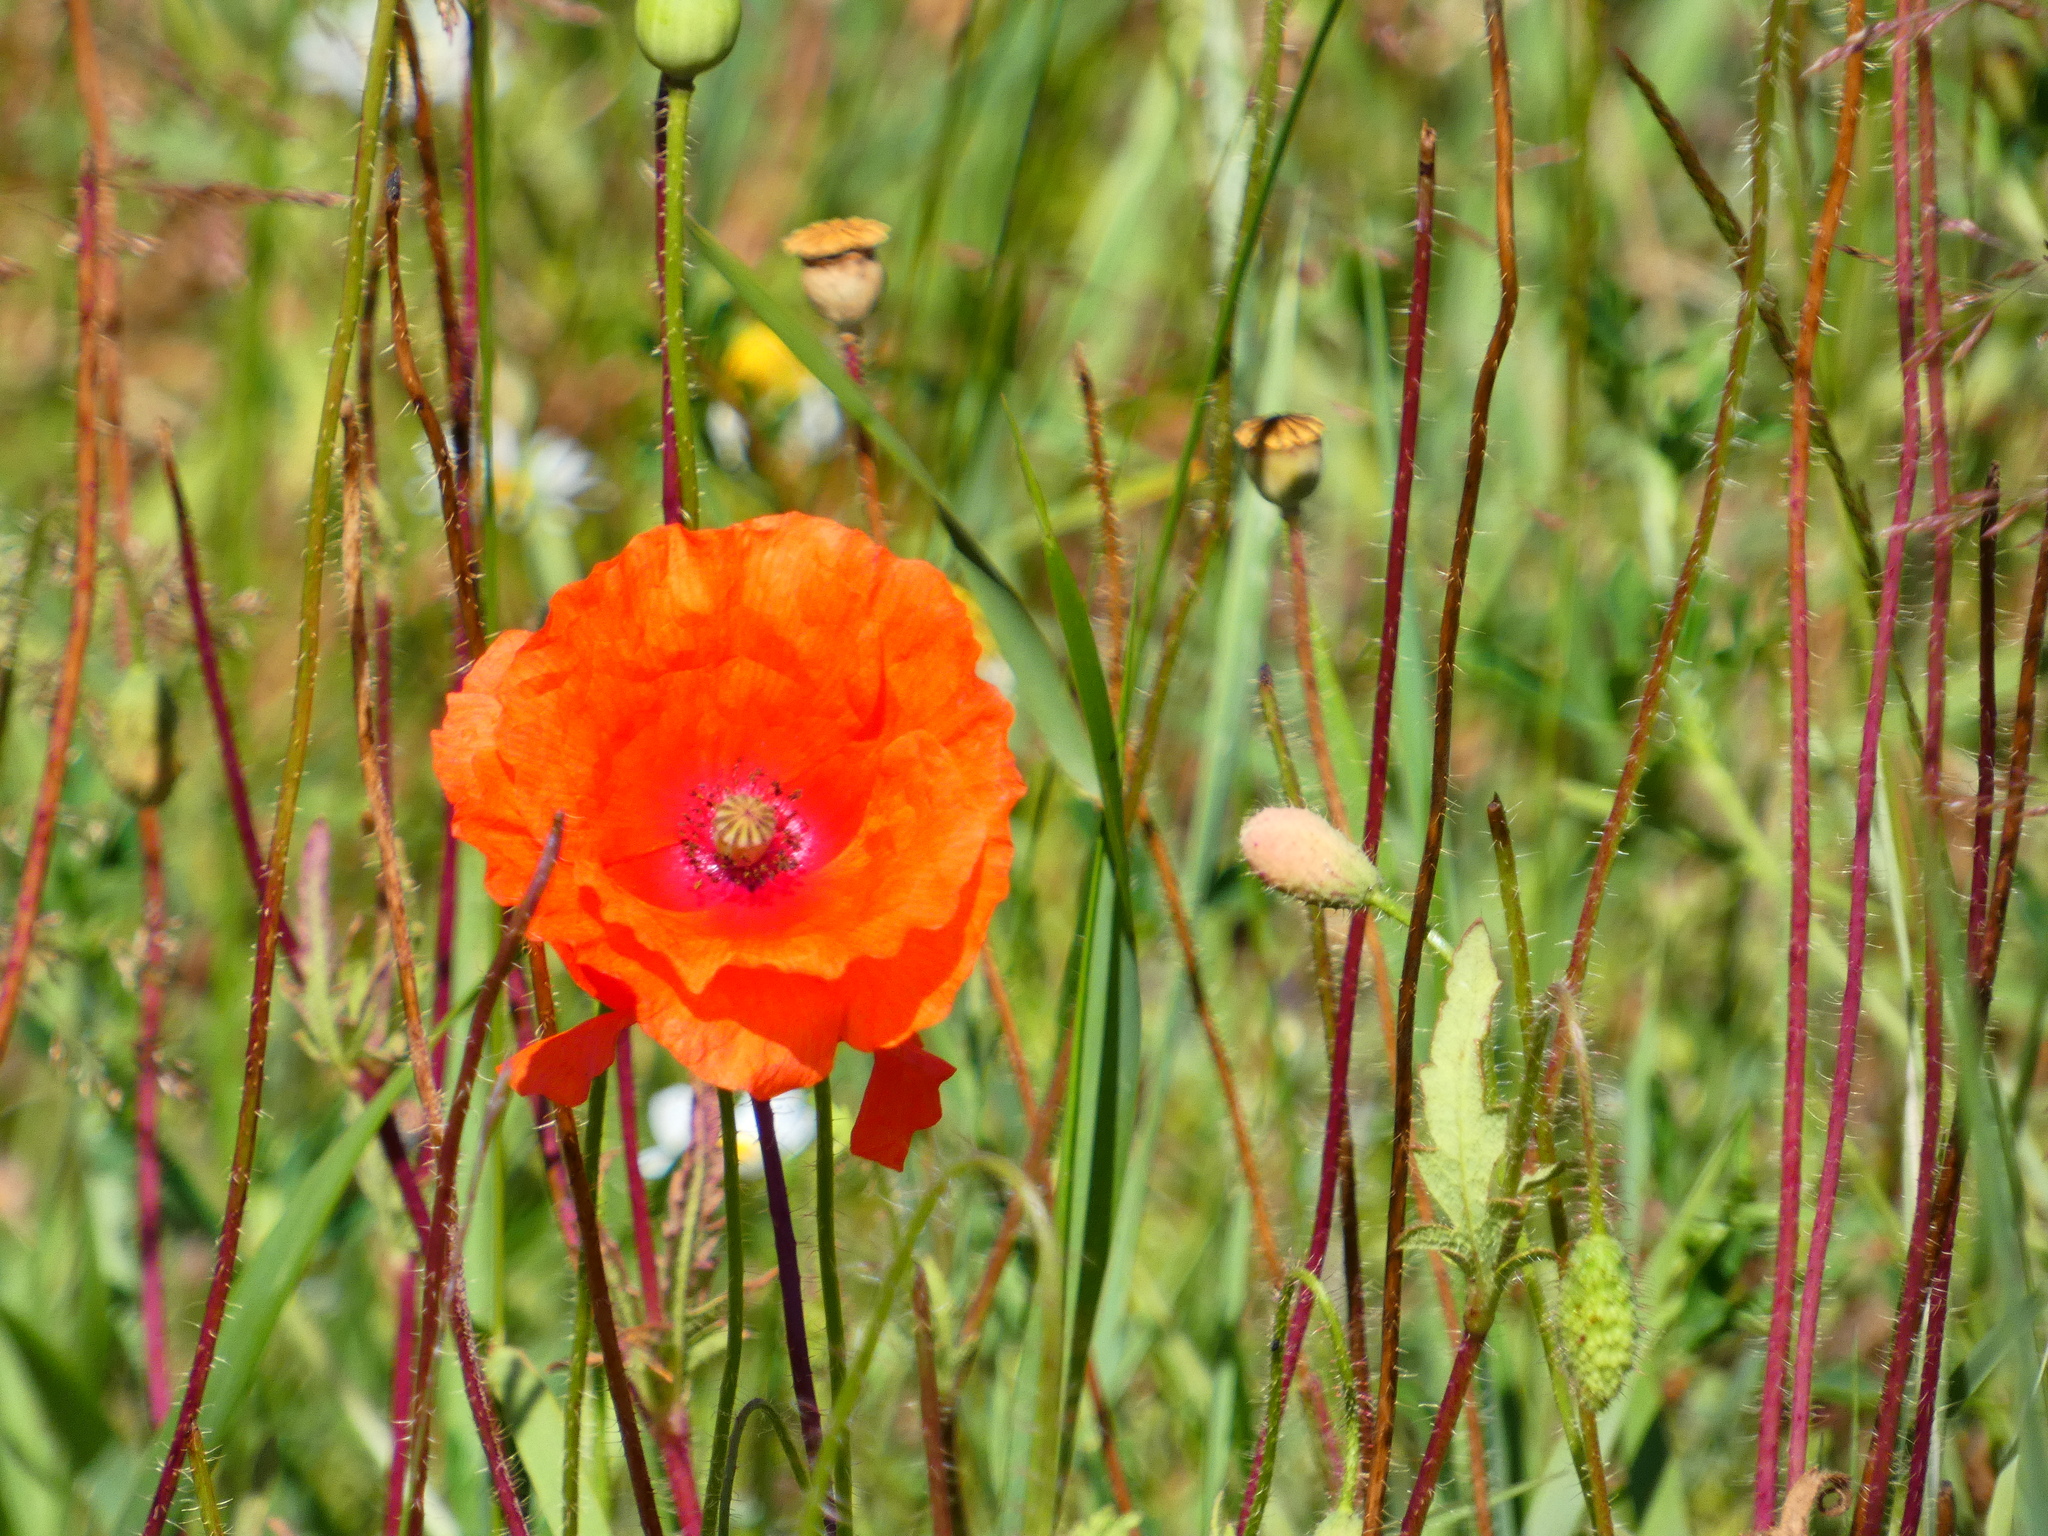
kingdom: Plantae
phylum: Tracheophyta
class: Magnoliopsida
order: Ranunculales
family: Papaveraceae
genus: Papaver
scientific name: Papaver rhoeas
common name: Corn poppy
